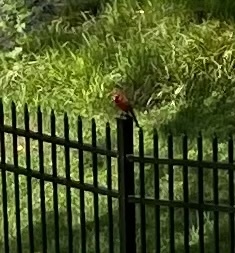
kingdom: Animalia
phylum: Chordata
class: Aves
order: Passeriformes
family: Cardinalidae
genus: Cardinalis
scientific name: Cardinalis cardinalis
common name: Northern cardinal
